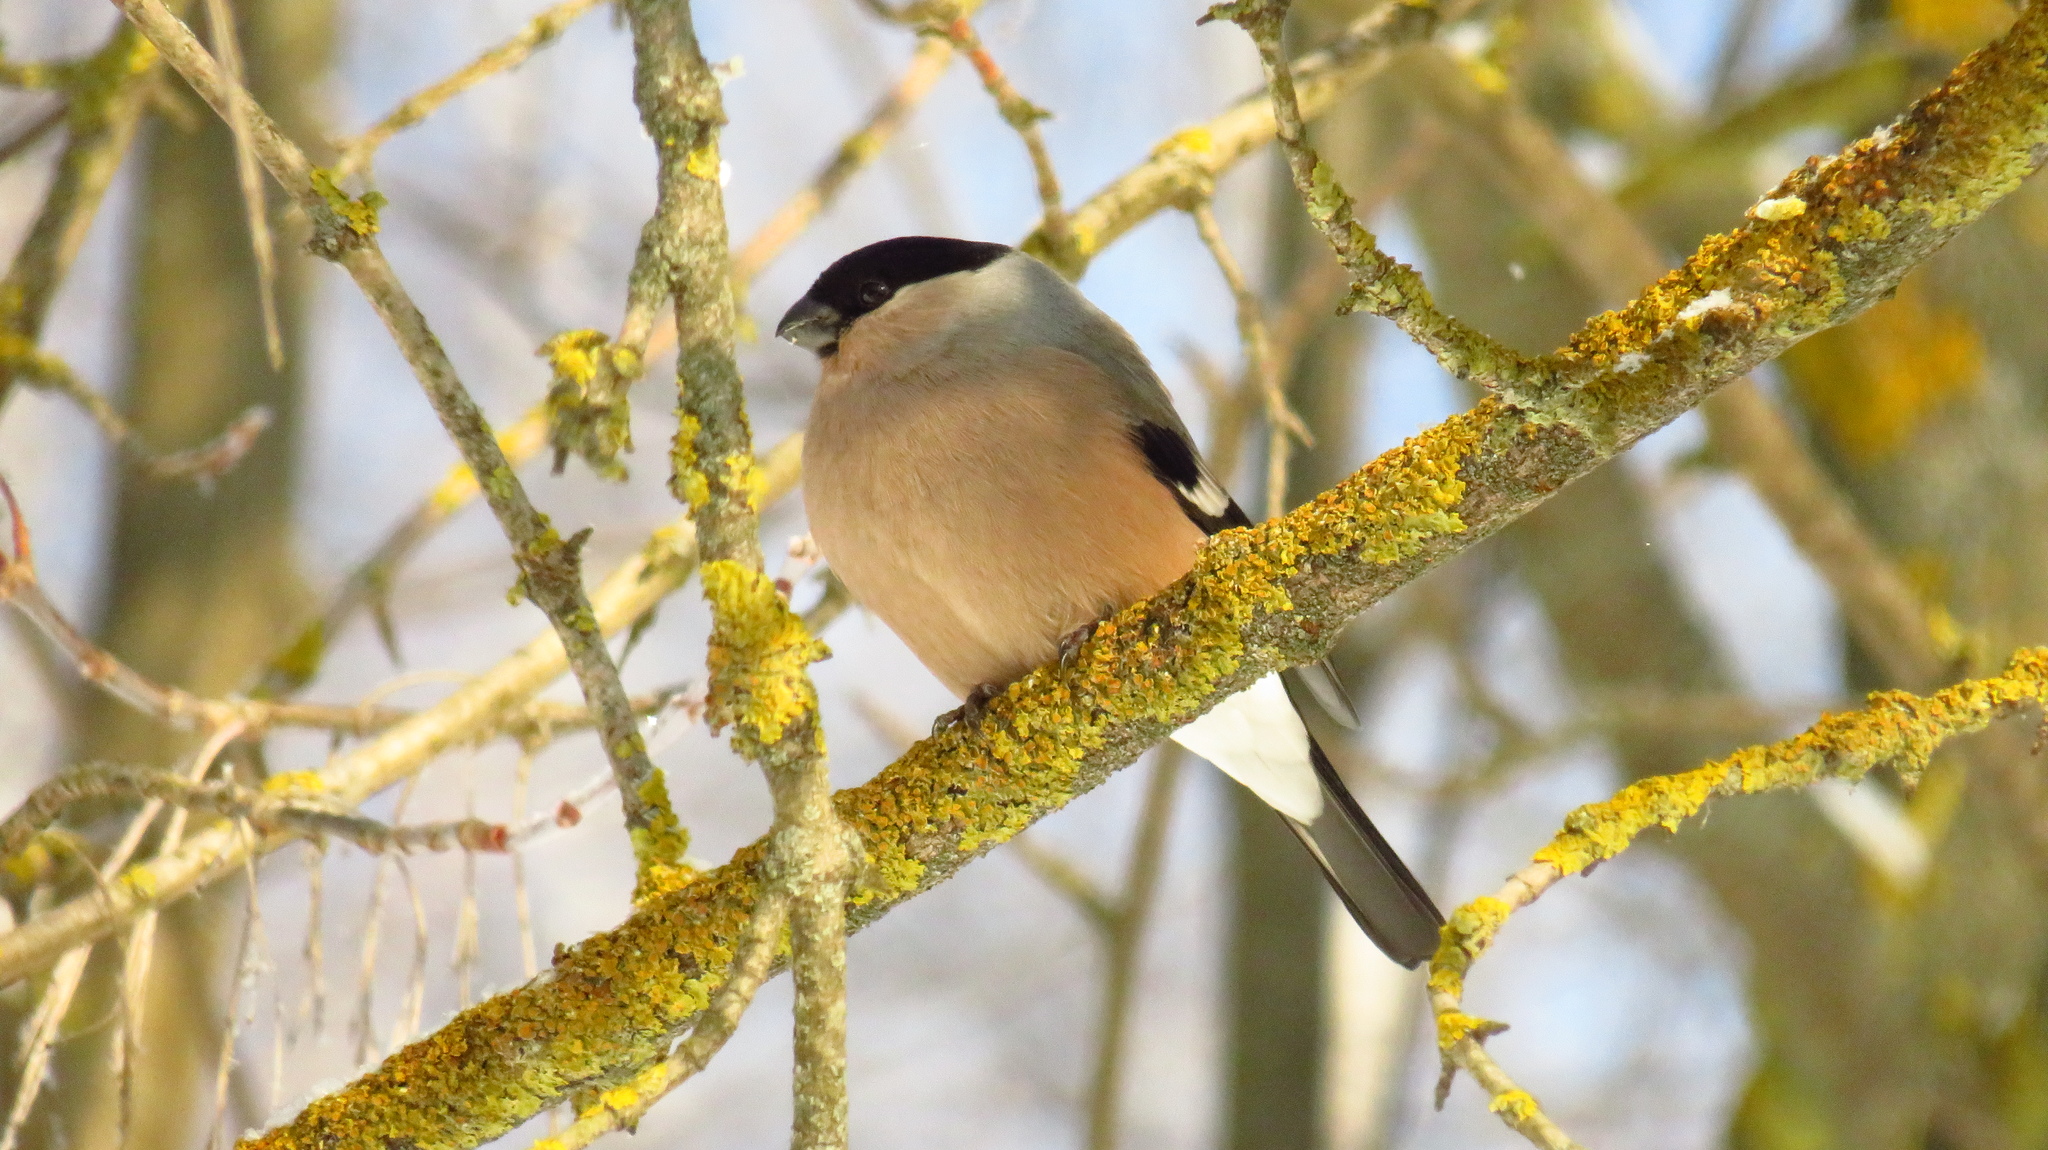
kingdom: Animalia
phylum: Chordata
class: Aves
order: Passeriformes
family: Fringillidae
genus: Pyrrhula
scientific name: Pyrrhula pyrrhula
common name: Eurasian bullfinch
